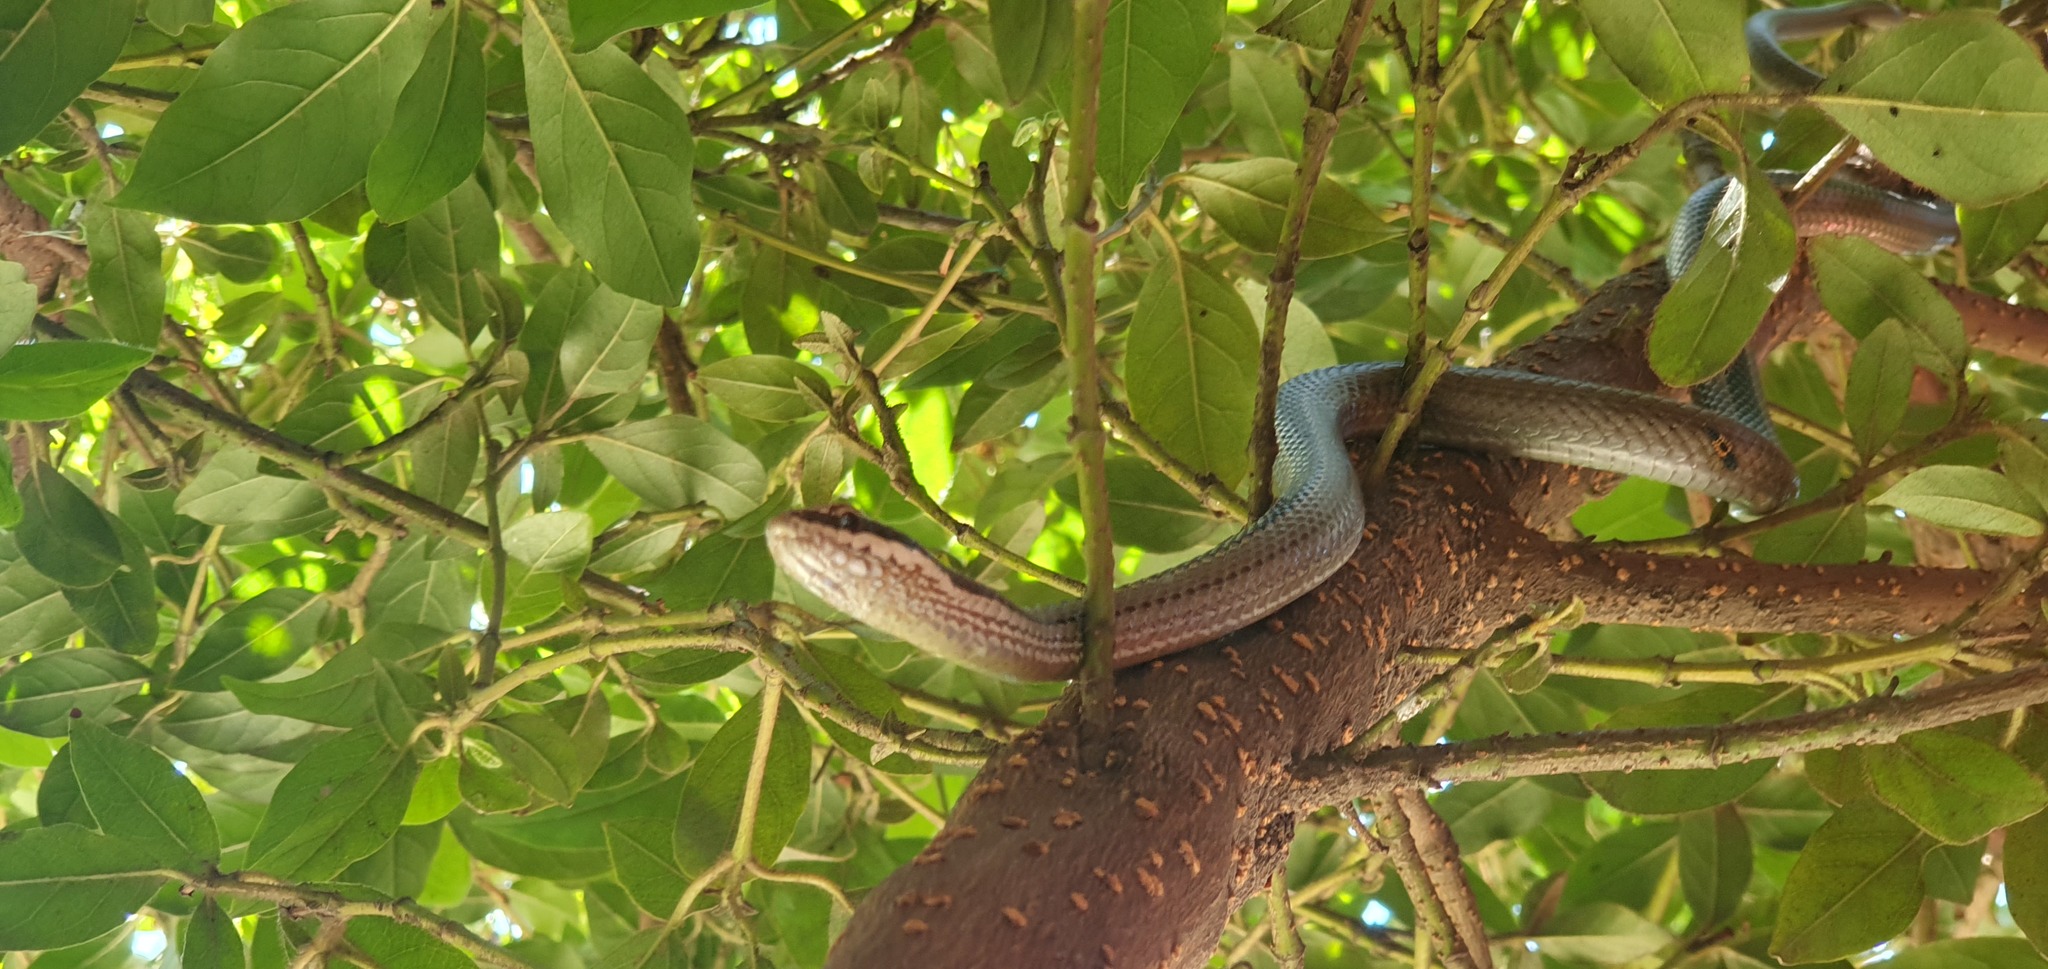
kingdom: Animalia
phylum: Chordata
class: Squamata
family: Colubridae
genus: Philodryas
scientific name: Philodryas chamissonis
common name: Chilean green racer
